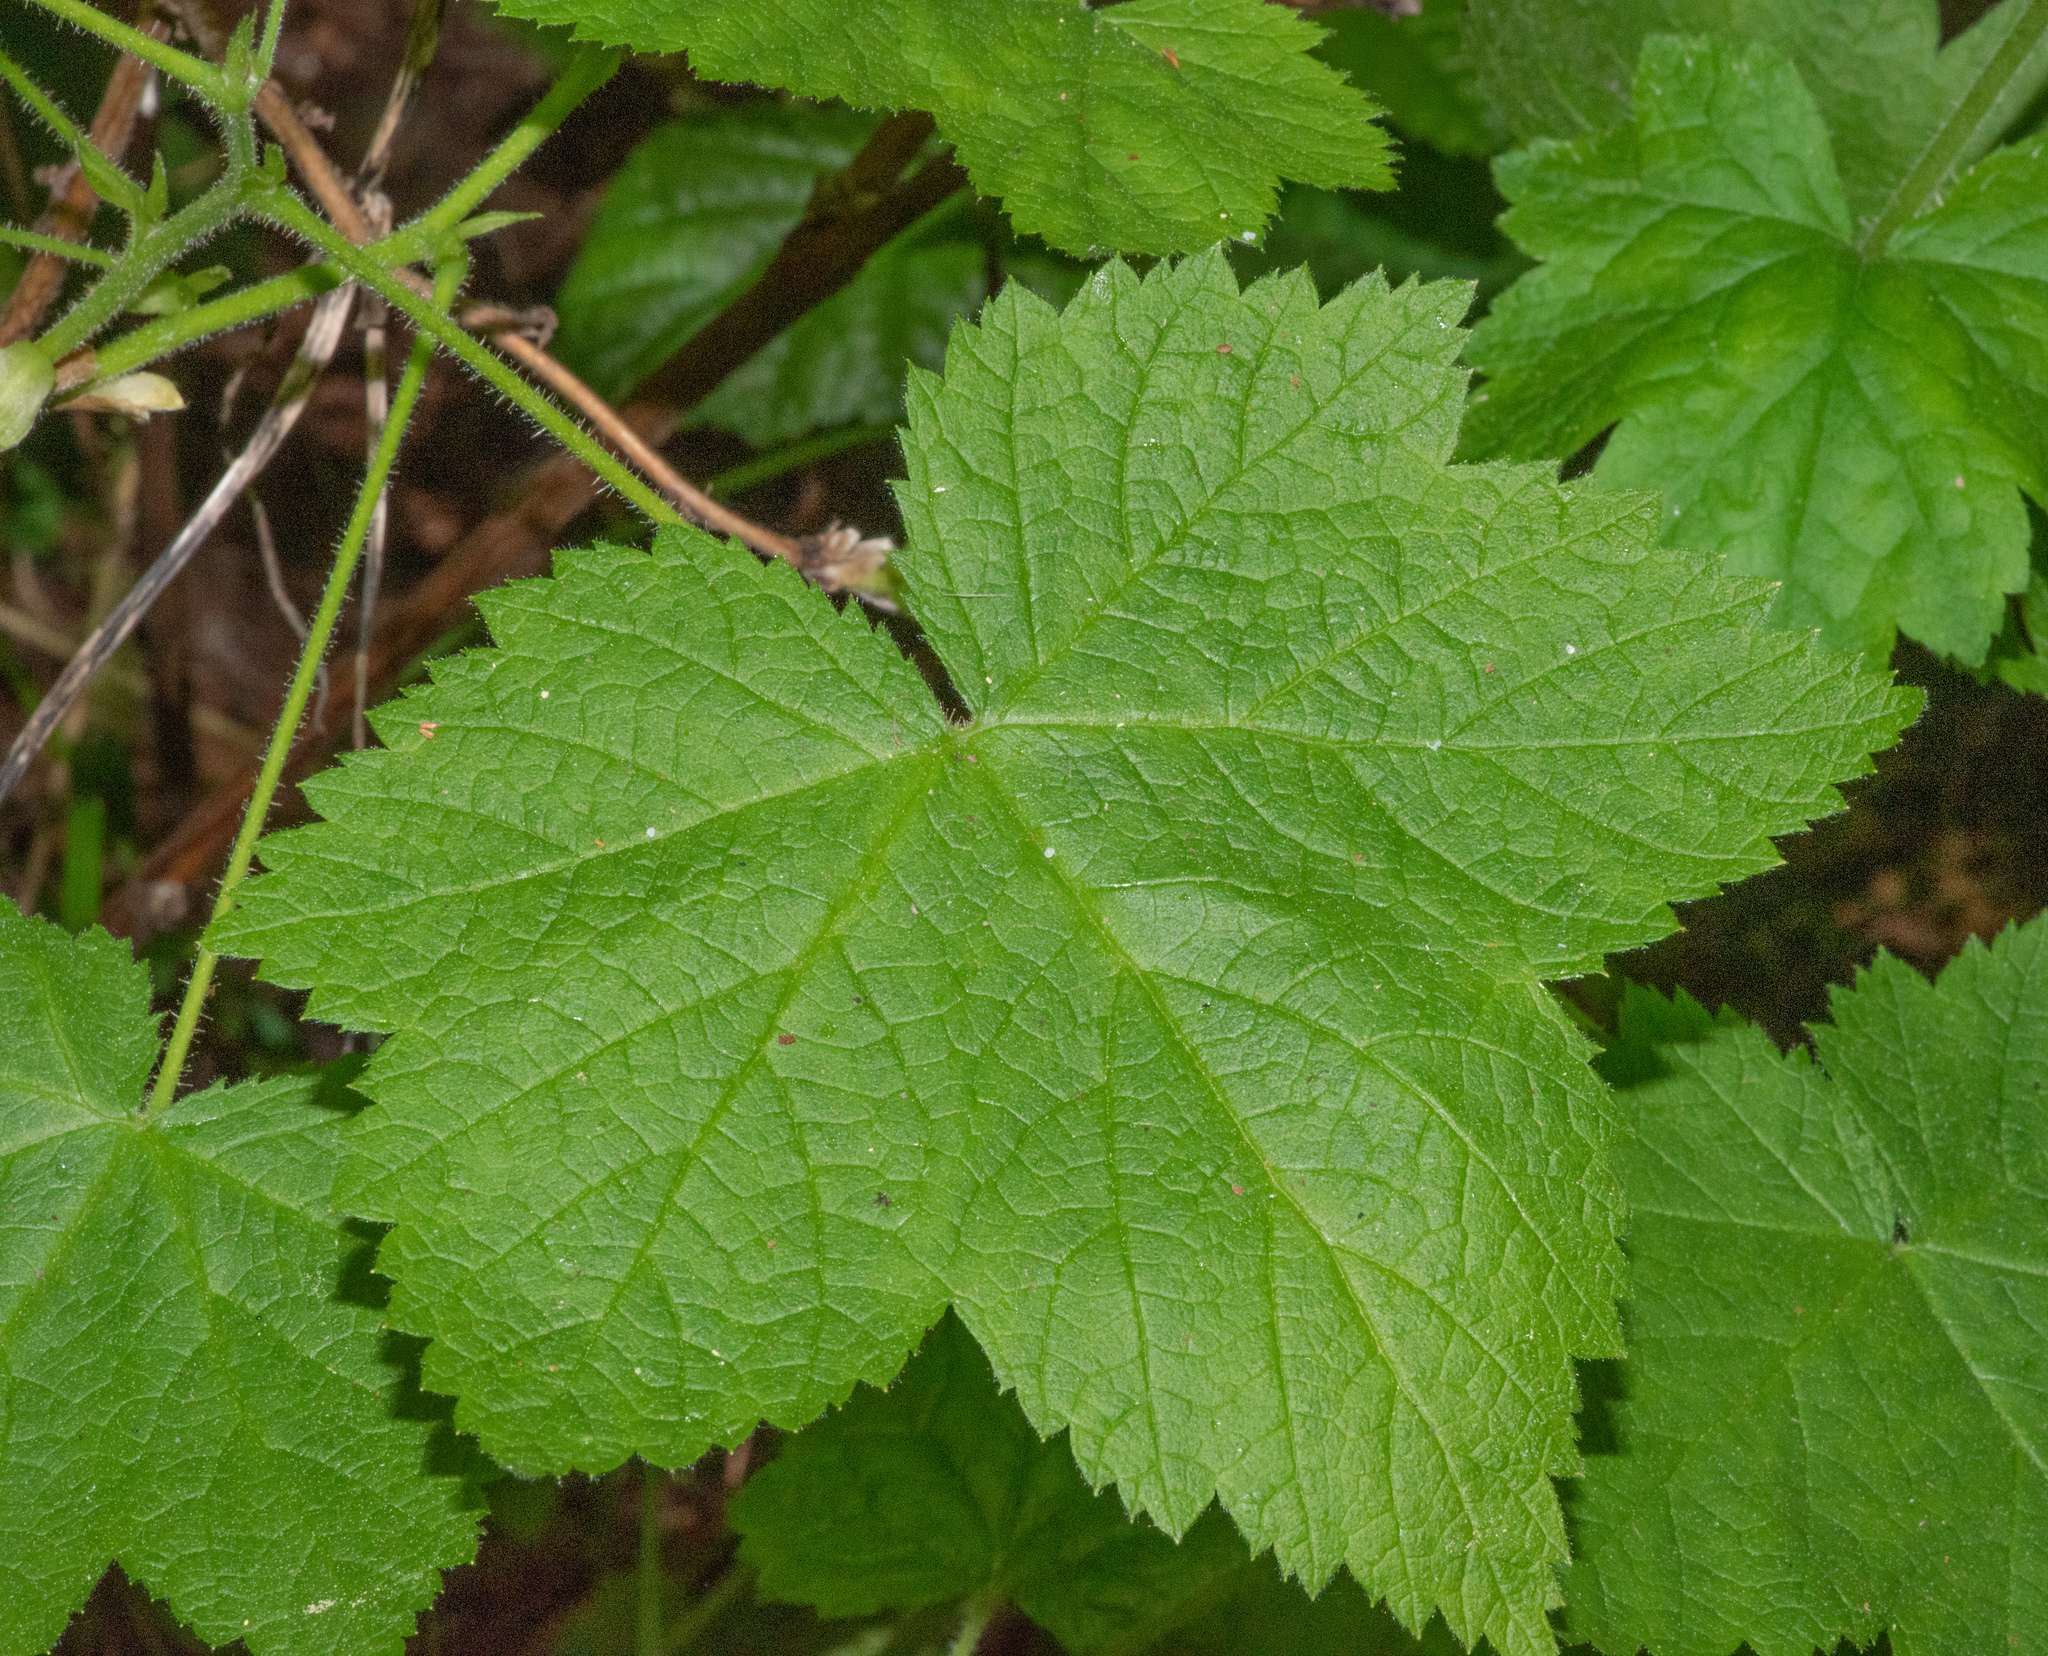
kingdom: Plantae
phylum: Tracheophyta
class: Magnoliopsida
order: Saxifragales
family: Saxifragaceae
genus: Tellima
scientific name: Tellima grandiflora
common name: Fringecups
